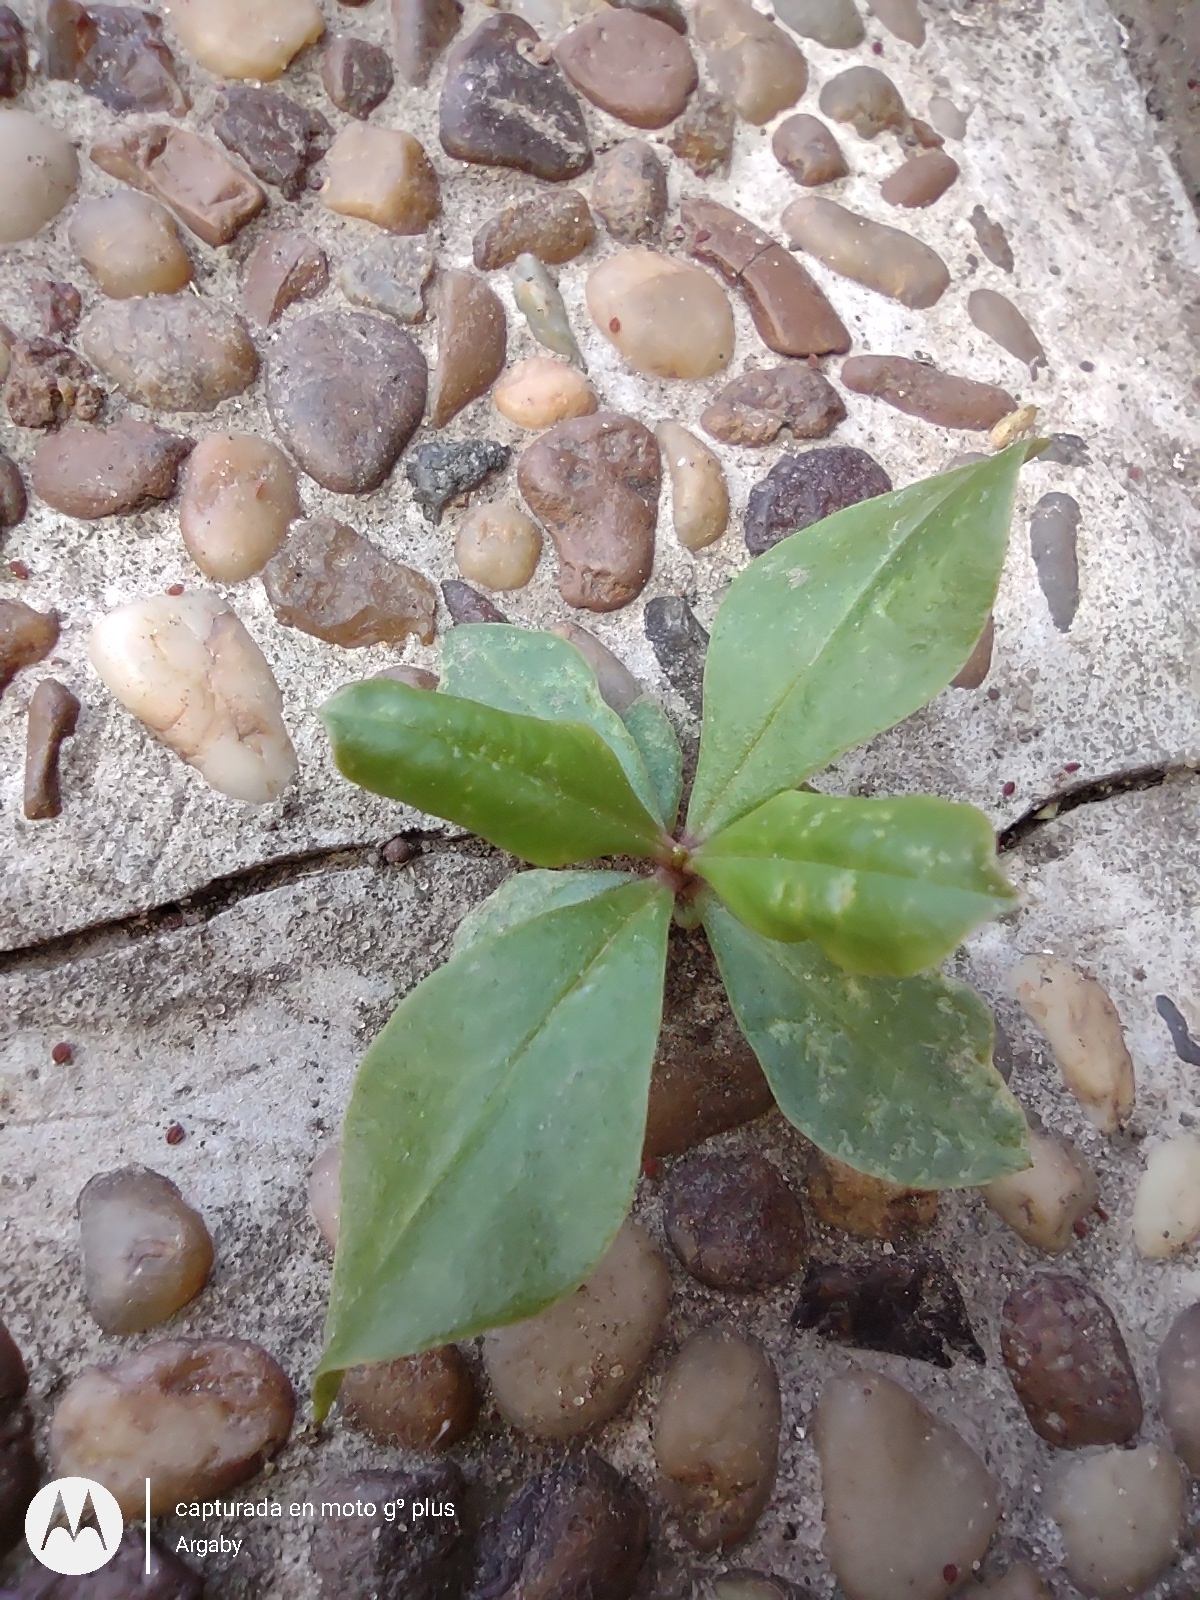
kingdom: Plantae
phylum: Tracheophyta
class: Magnoliopsida
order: Caryophyllales
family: Talinaceae
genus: Talinum
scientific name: Talinum paniculatum
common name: Jewels of opar
